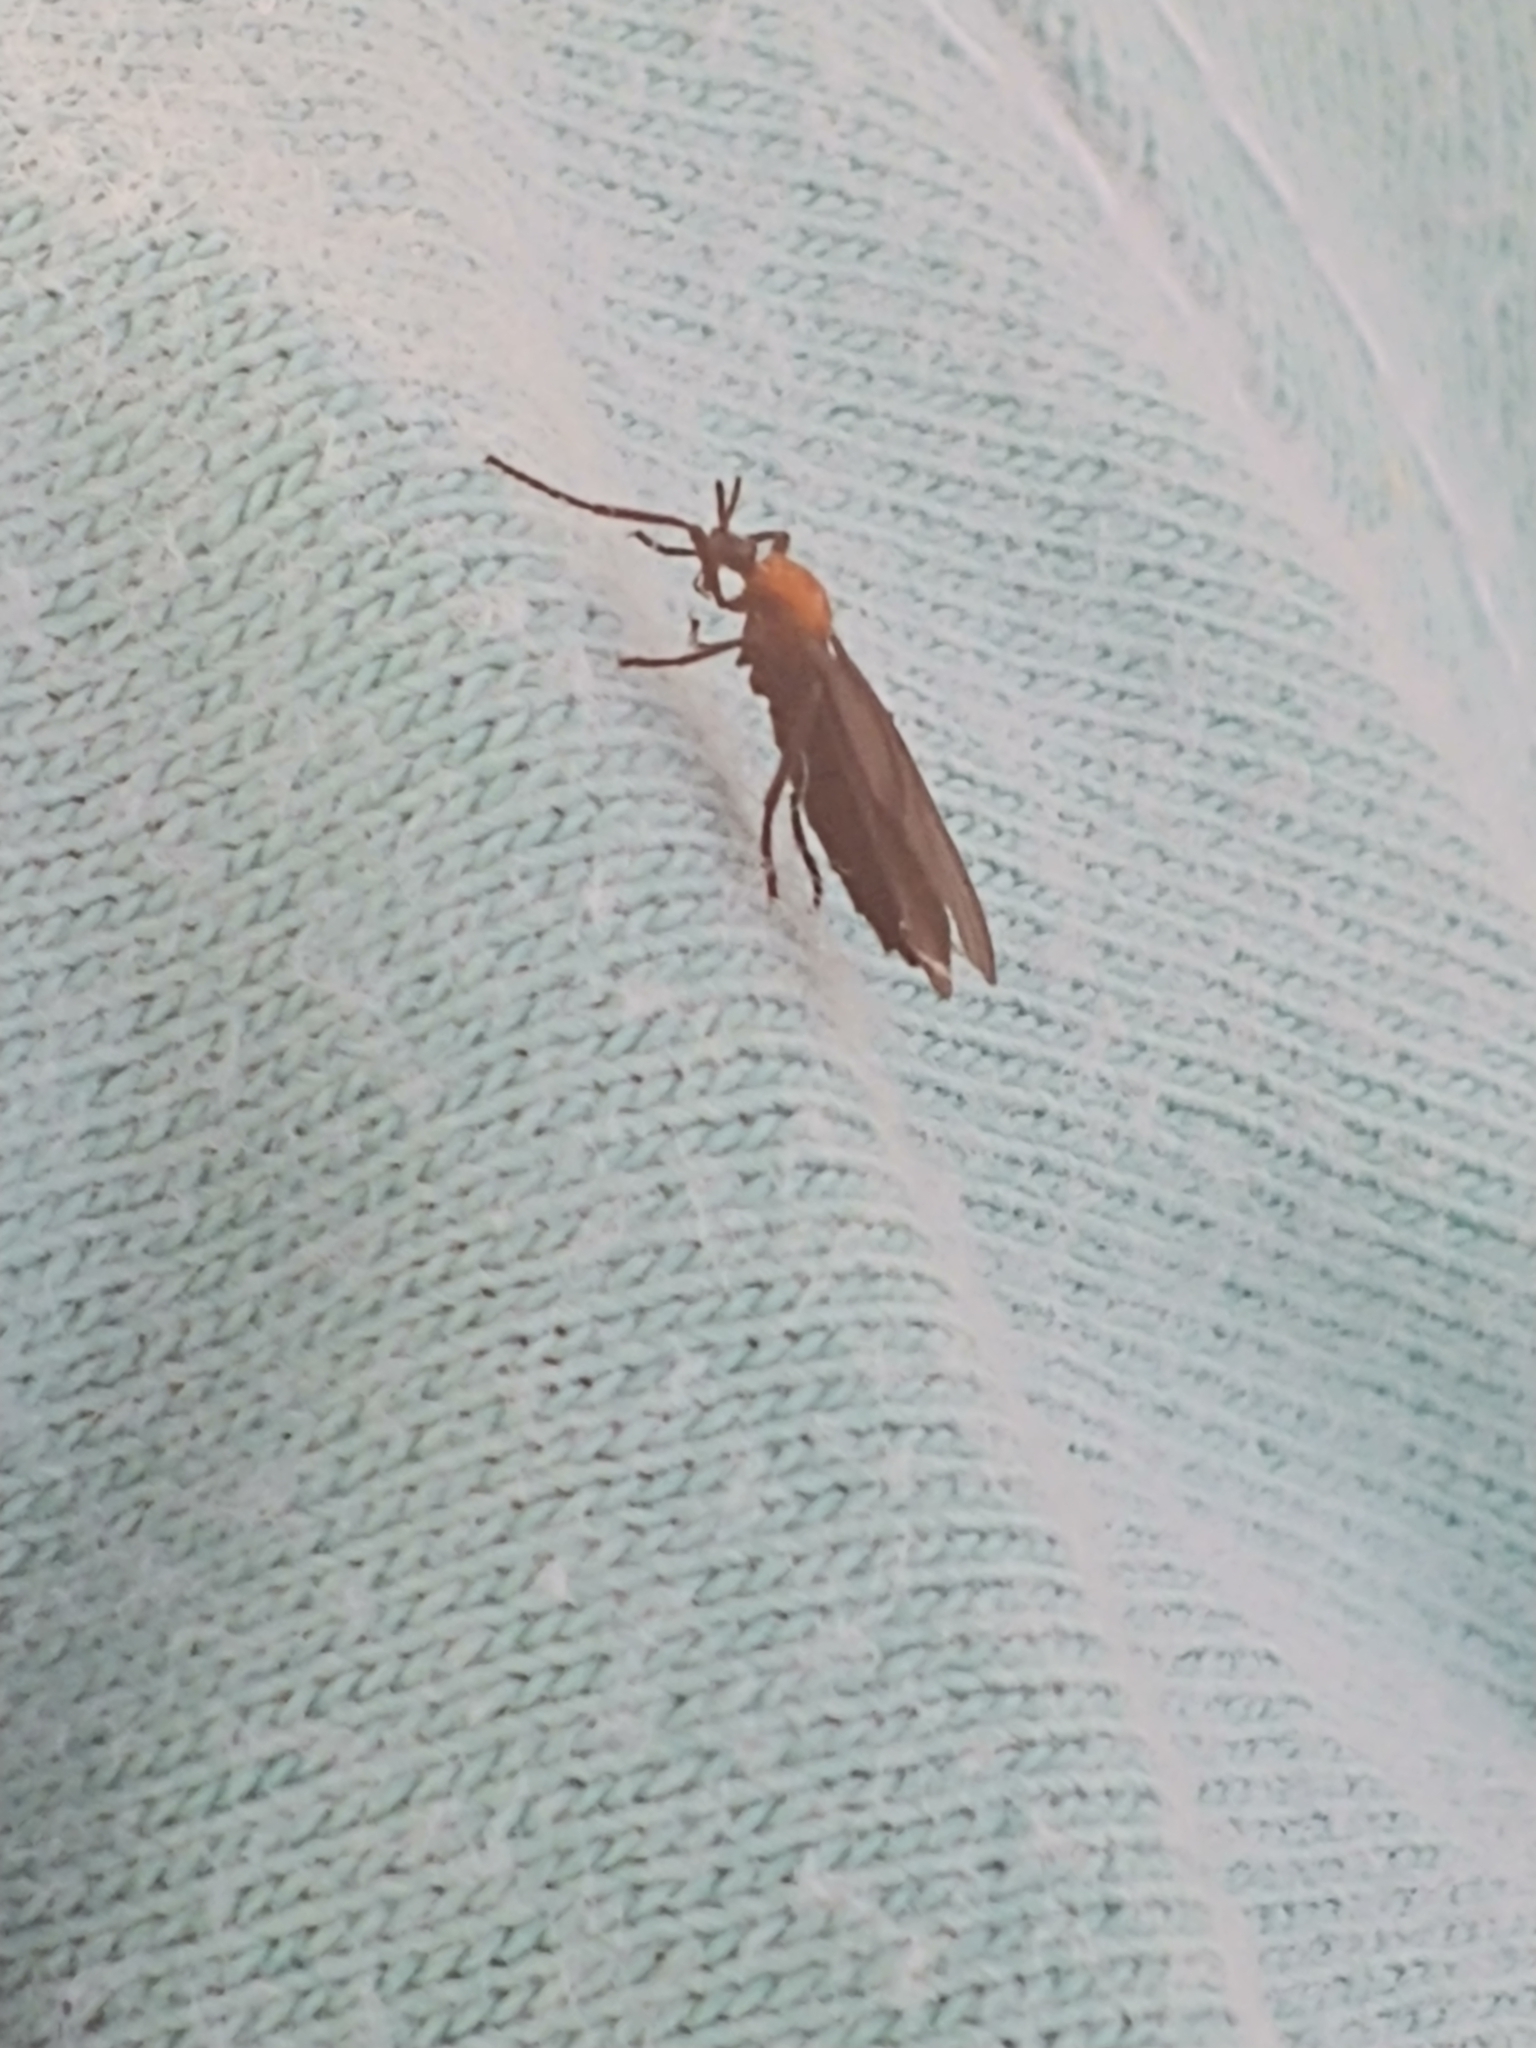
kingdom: Animalia
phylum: Arthropoda
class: Insecta
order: Diptera
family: Bibionidae
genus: Plecia
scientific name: Plecia nearctica
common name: March fly
